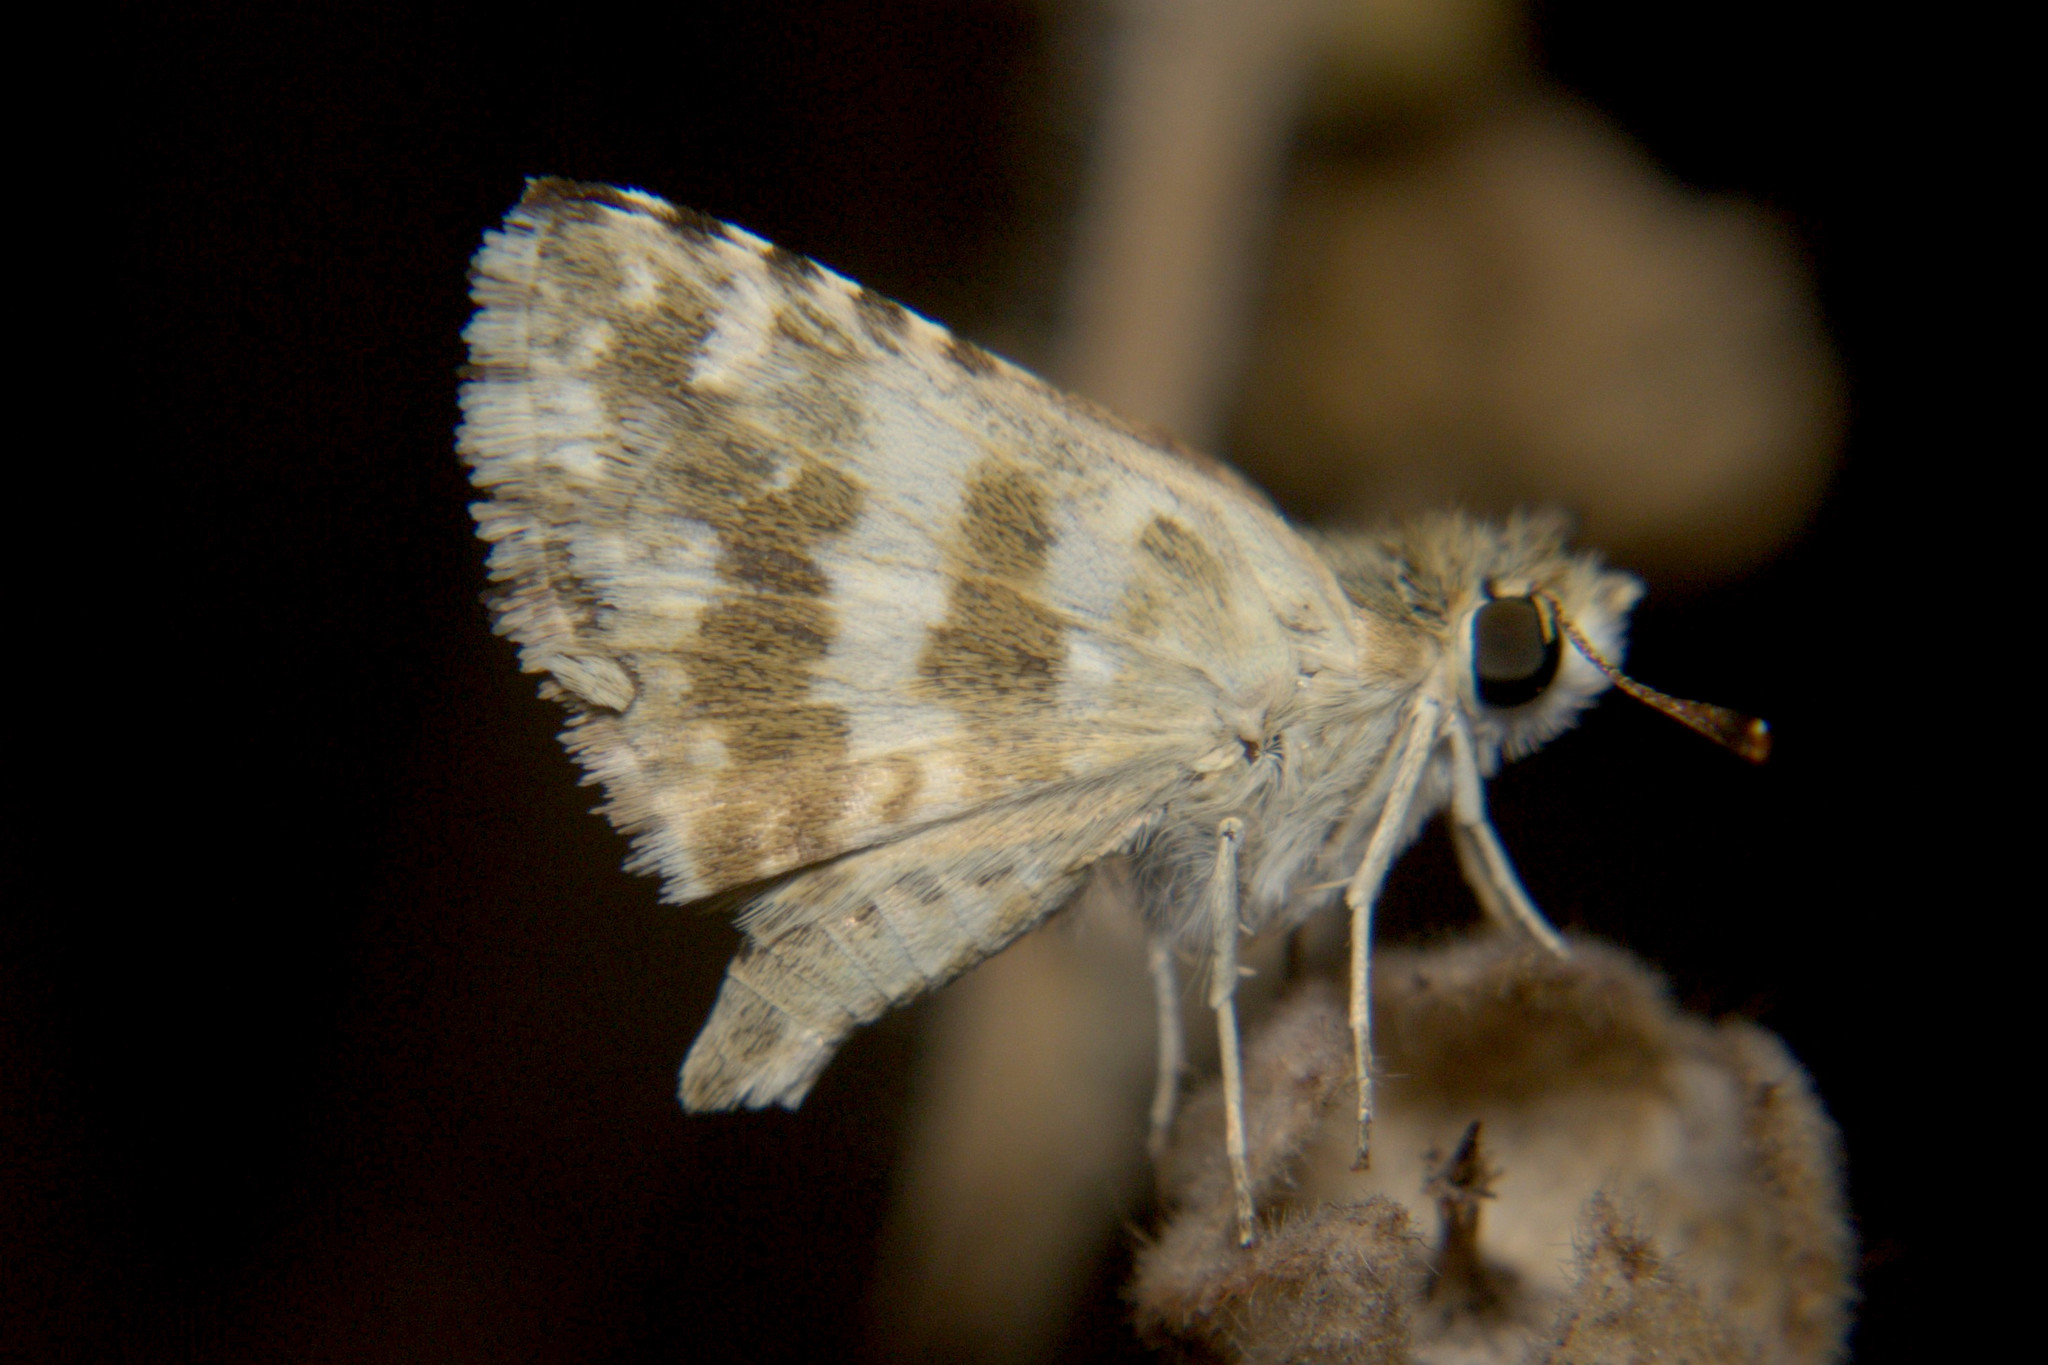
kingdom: Animalia
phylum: Arthropoda
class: Insecta
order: Lepidoptera
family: Hesperiidae
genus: Spialia
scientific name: Spialia galba
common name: Indian skipper
